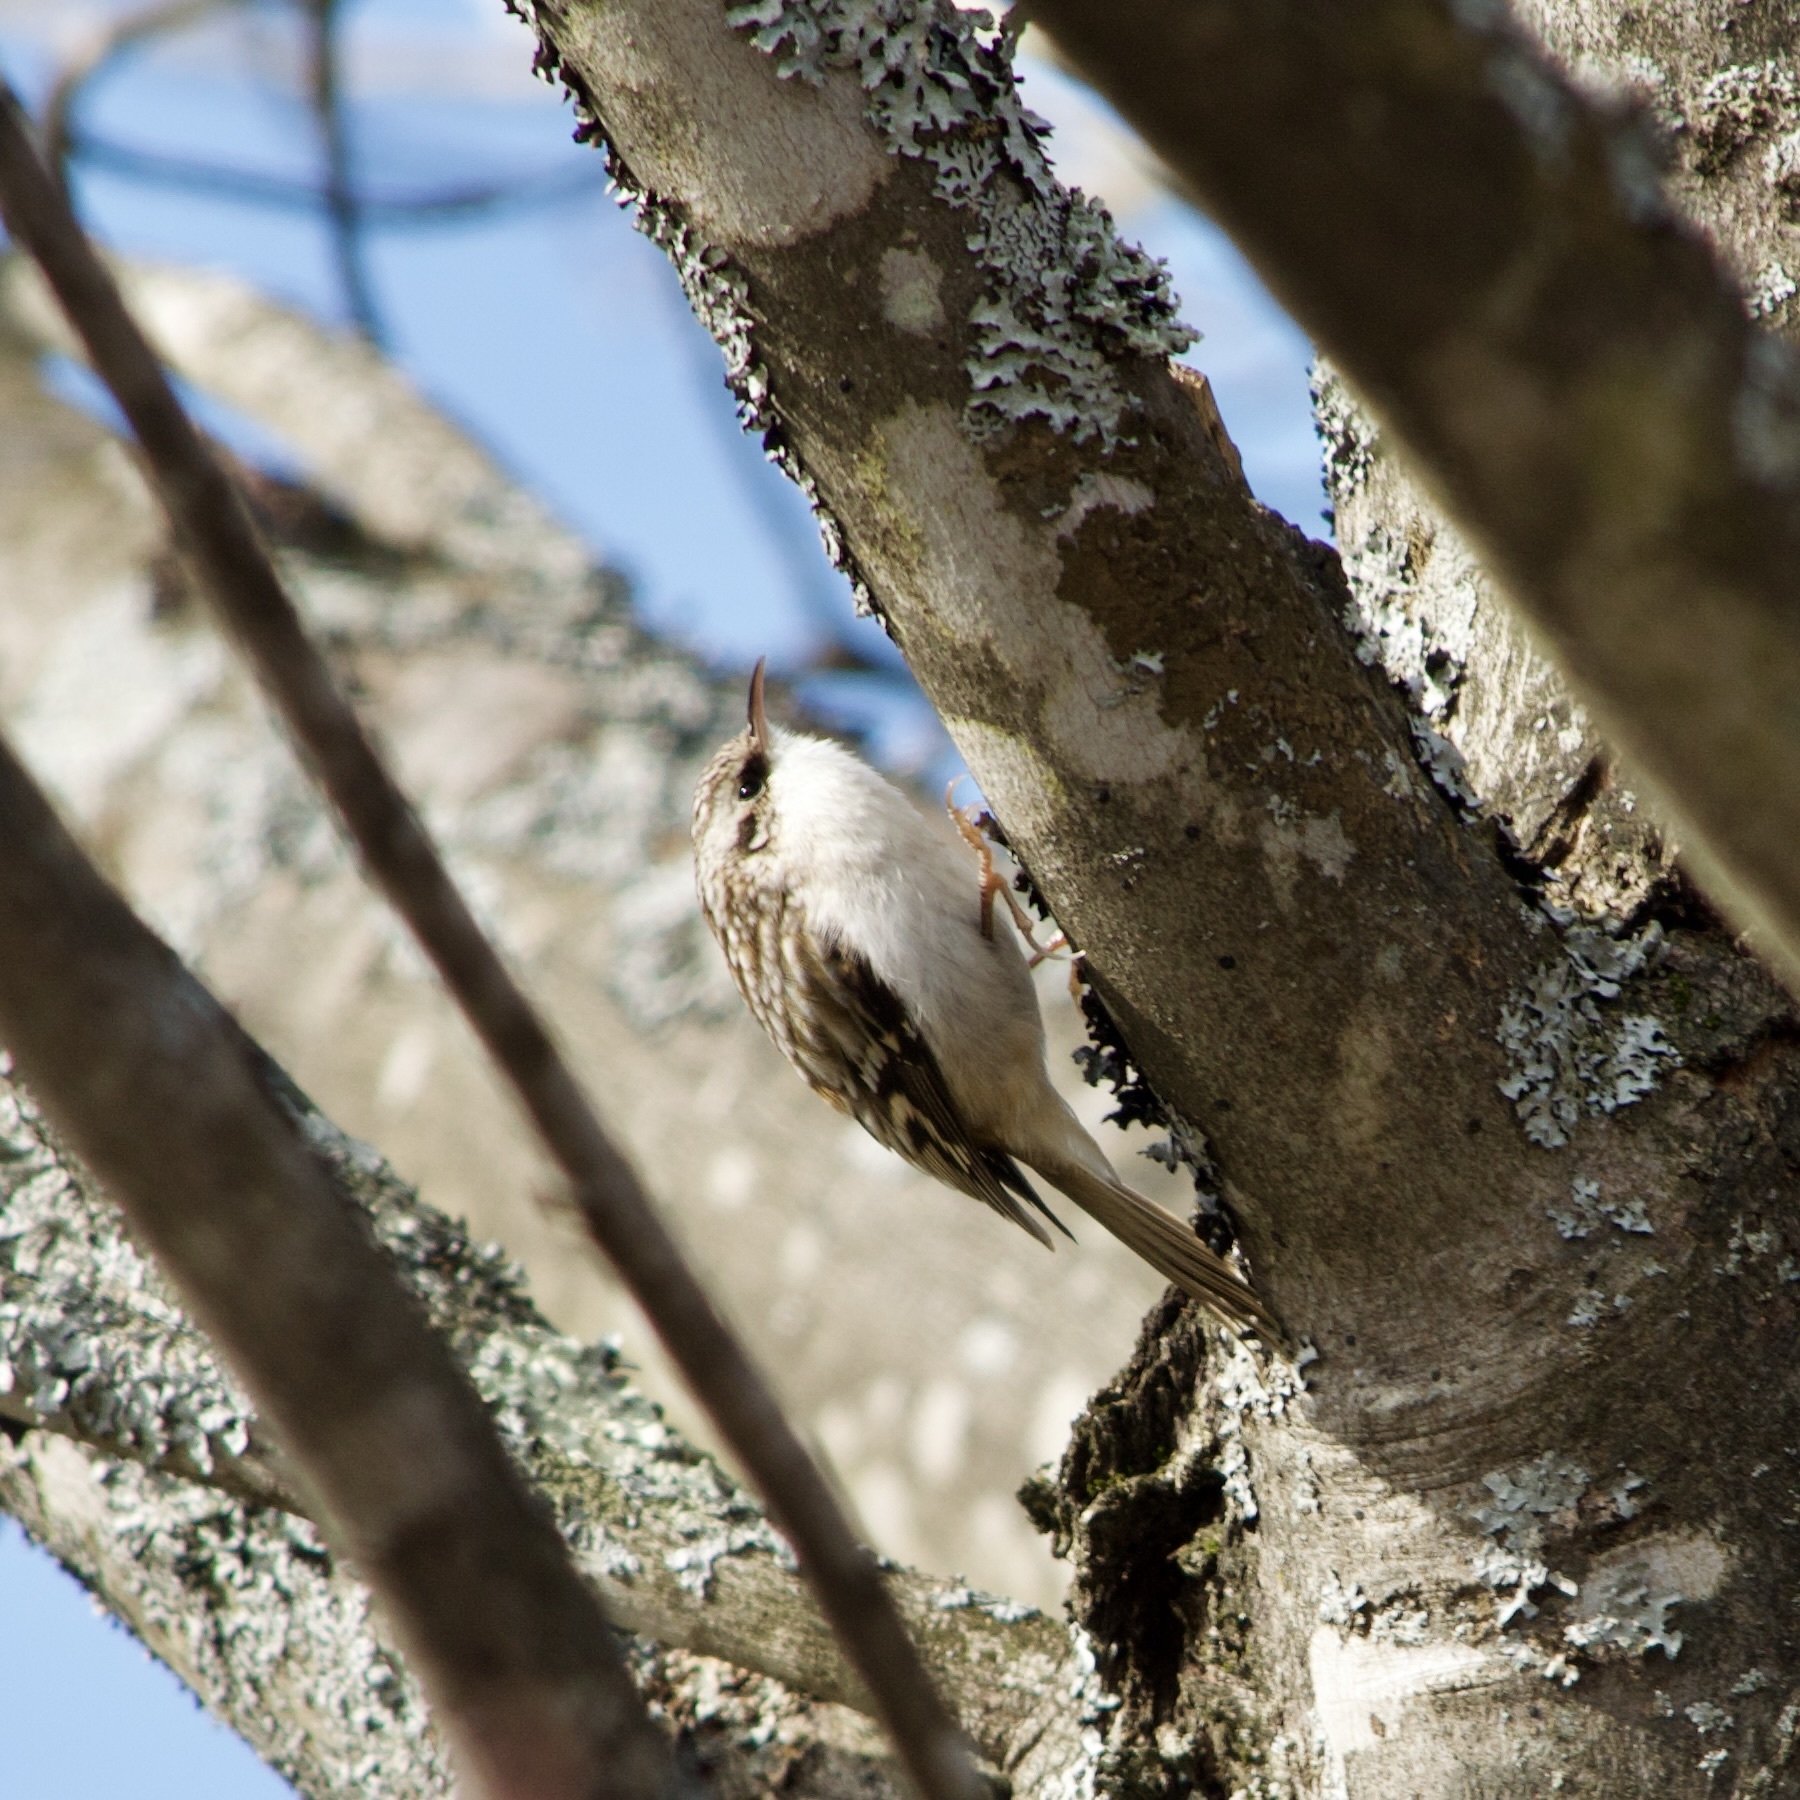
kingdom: Animalia
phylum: Chordata
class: Aves
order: Passeriformes
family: Certhiidae
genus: Certhia
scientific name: Certhia americana
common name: Brown creeper
